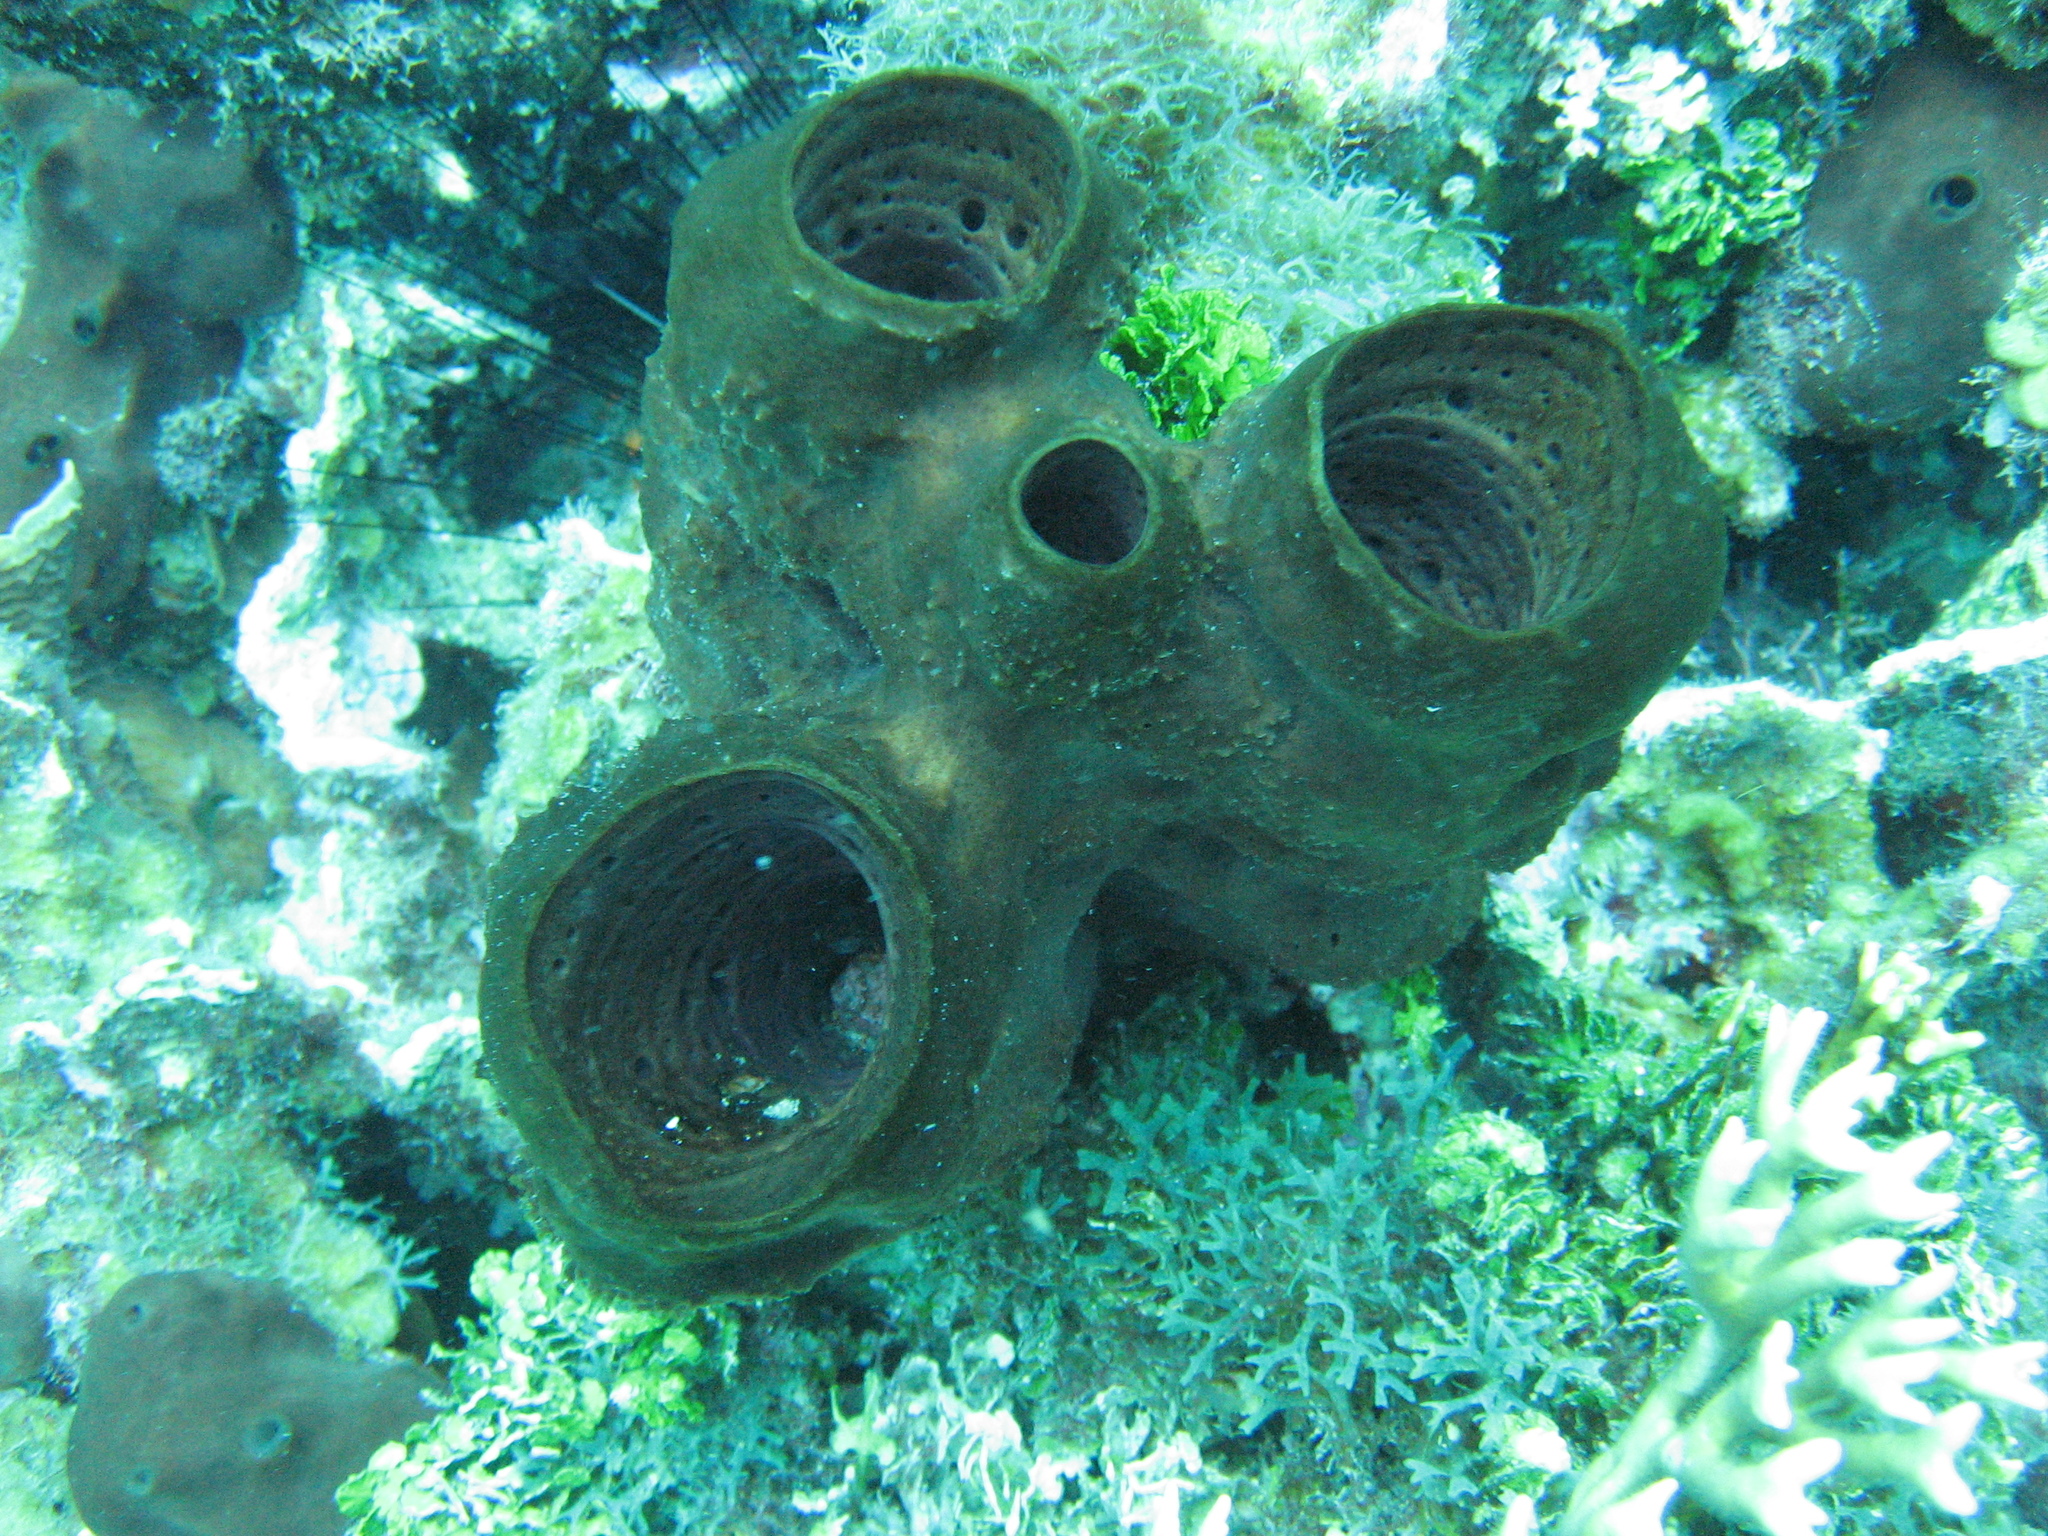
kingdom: Animalia
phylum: Porifera
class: Demospongiae
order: Haplosclerida
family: Petrosiidae
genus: Neopetrosia
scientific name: Neopetrosia rosariensis
